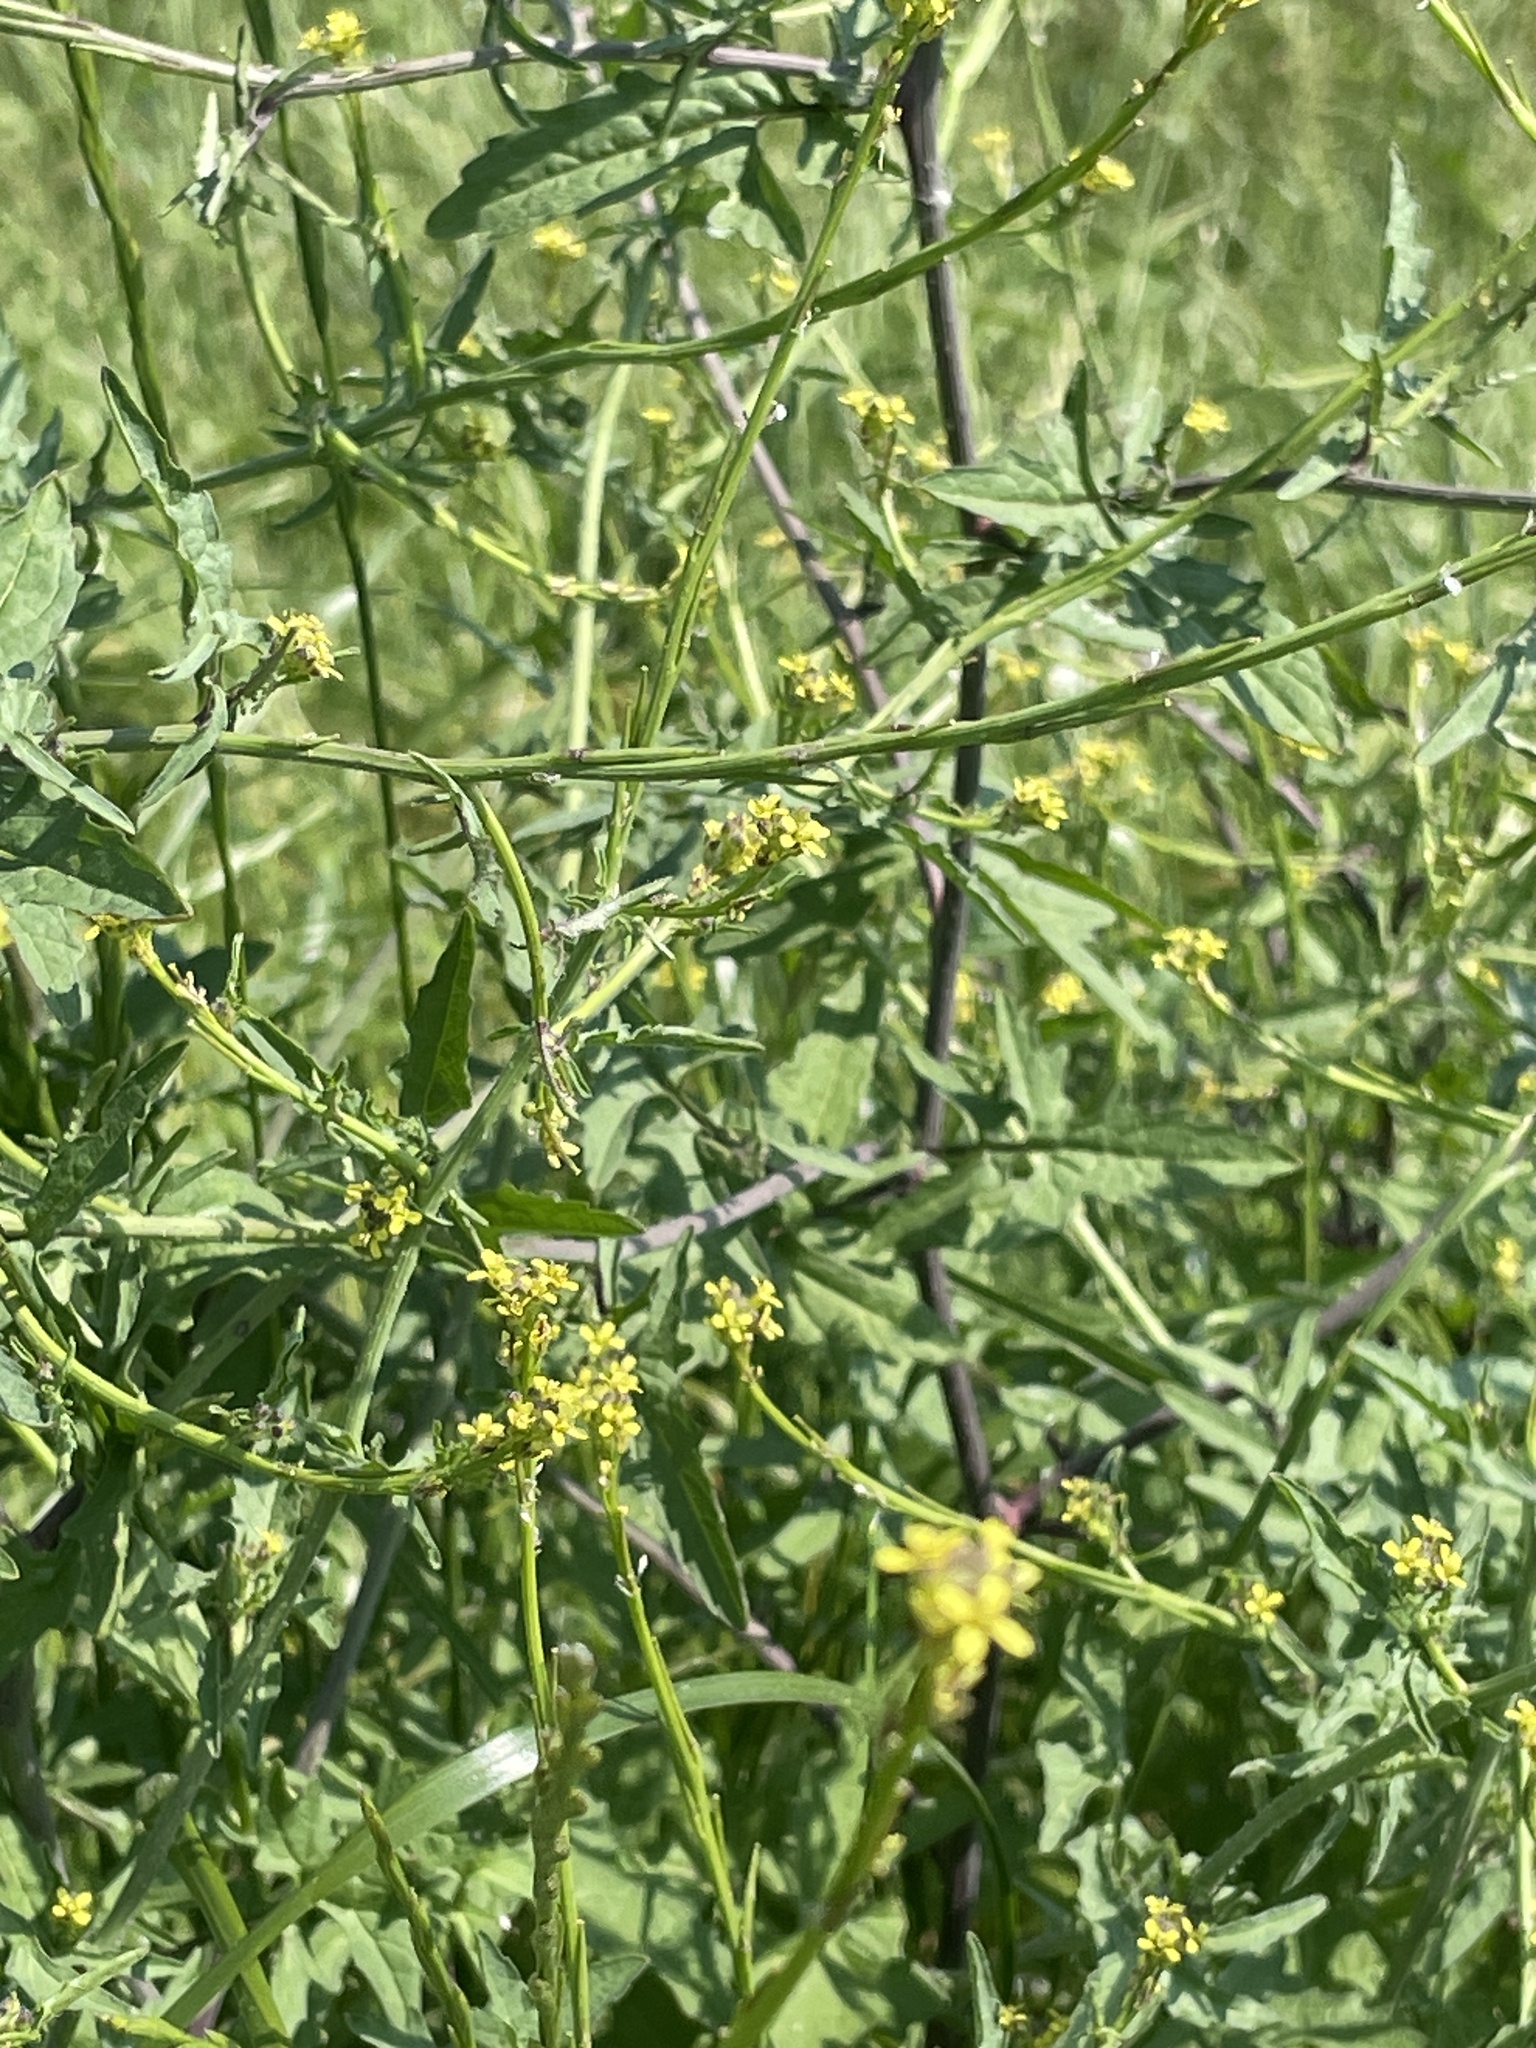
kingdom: Plantae
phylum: Tracheophyta
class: Magnoliopsida
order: Brassicales
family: Brassicaceae
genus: Sisymbrium
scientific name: Sisymbrium officinale
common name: Hedge mustard
